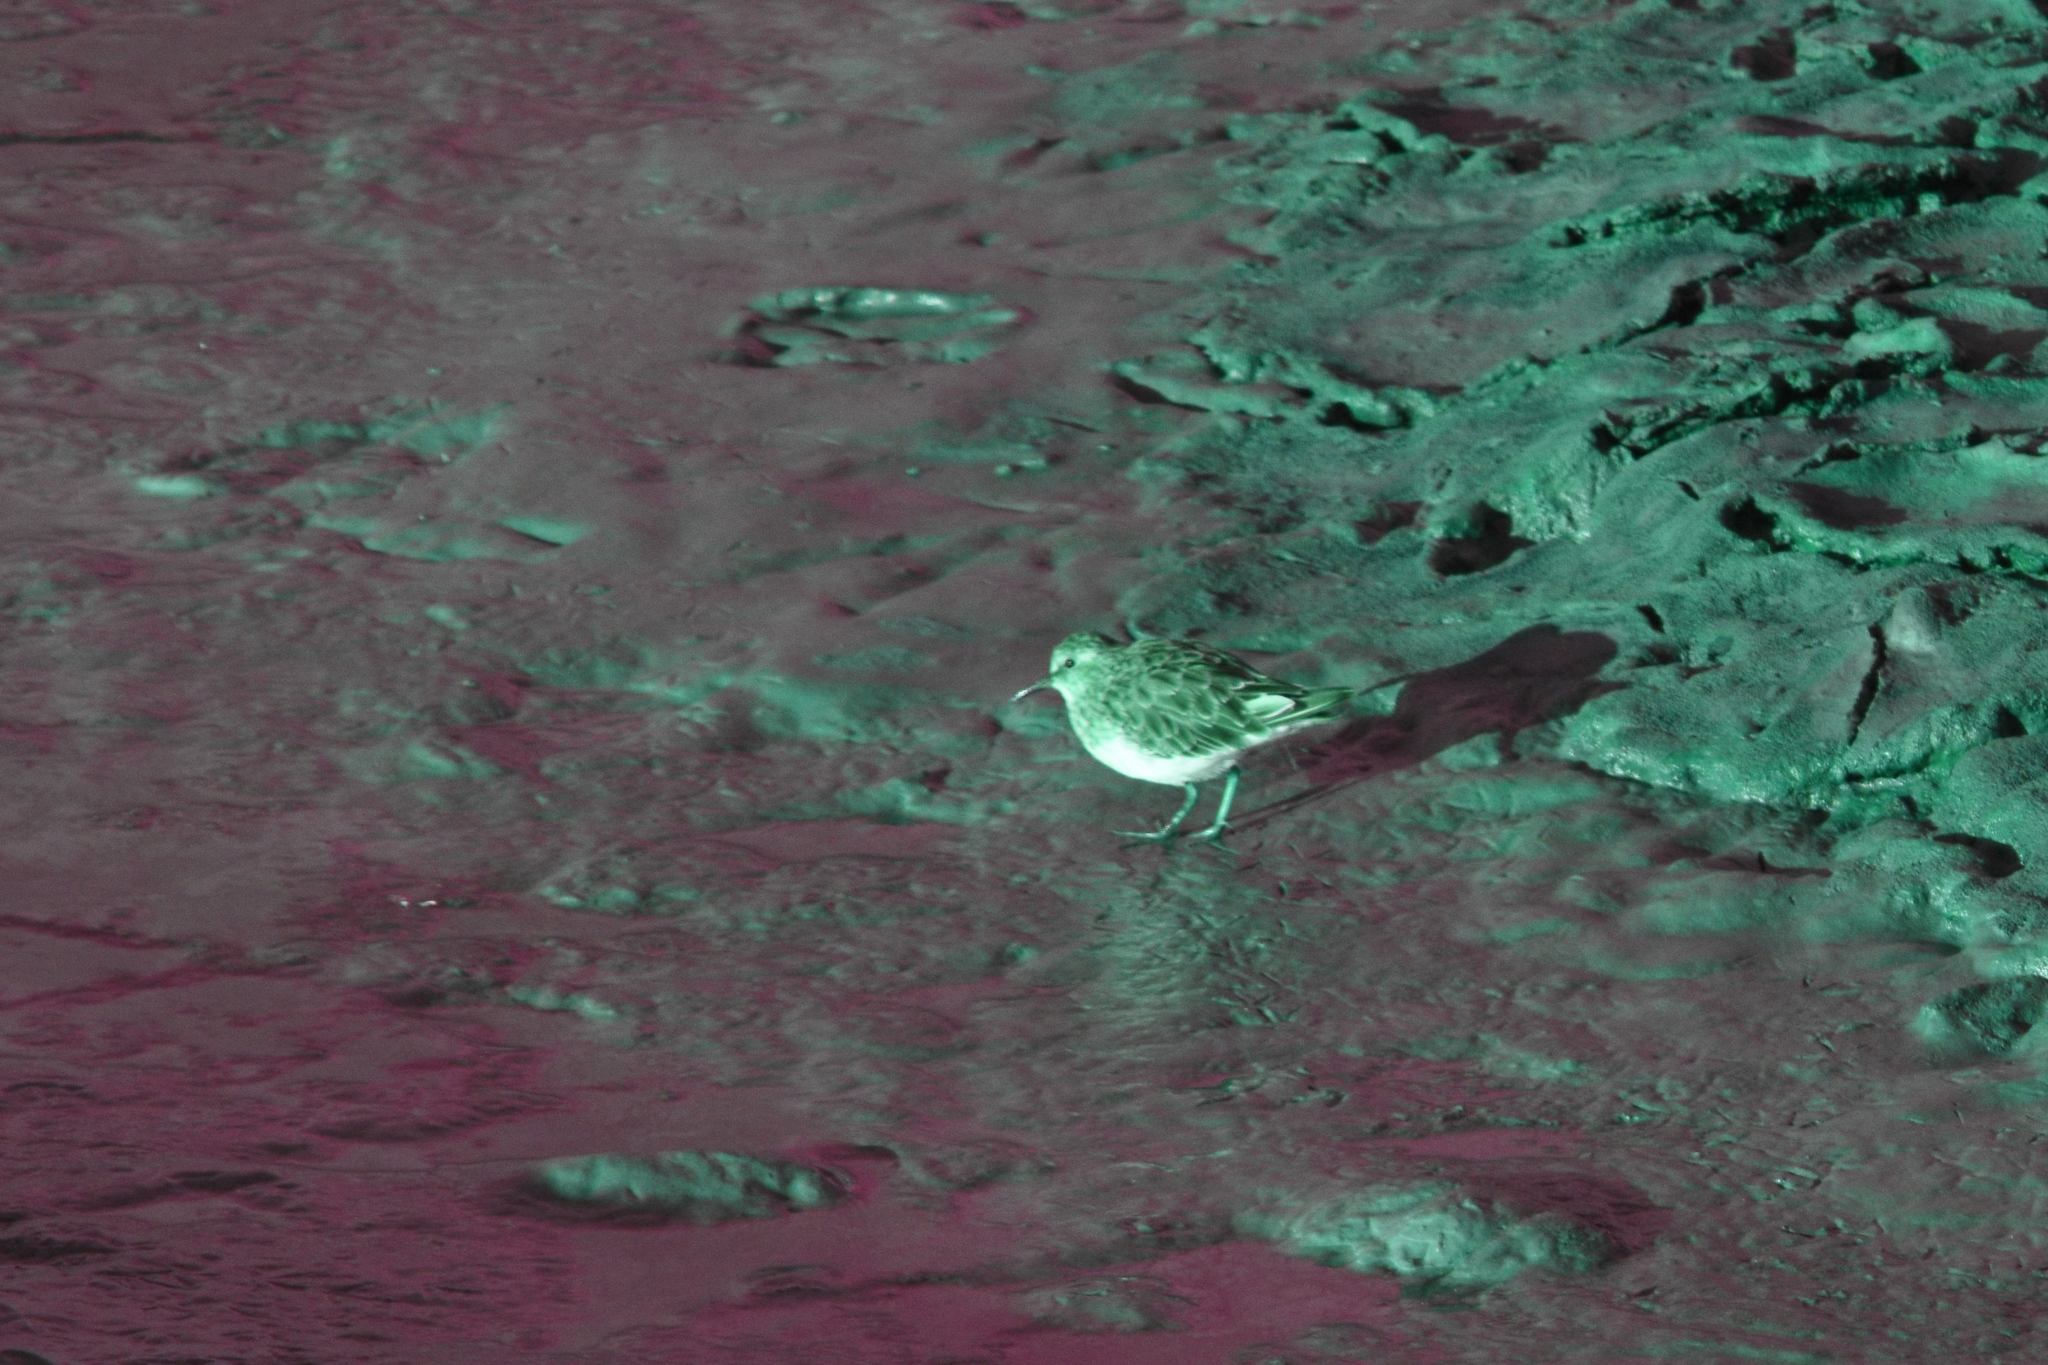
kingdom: Animalia
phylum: Chordata
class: Aves
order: Charadriiformes
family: Scolopacidae
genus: Calidris
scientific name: Calidris minutilla
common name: Least sandpiper
